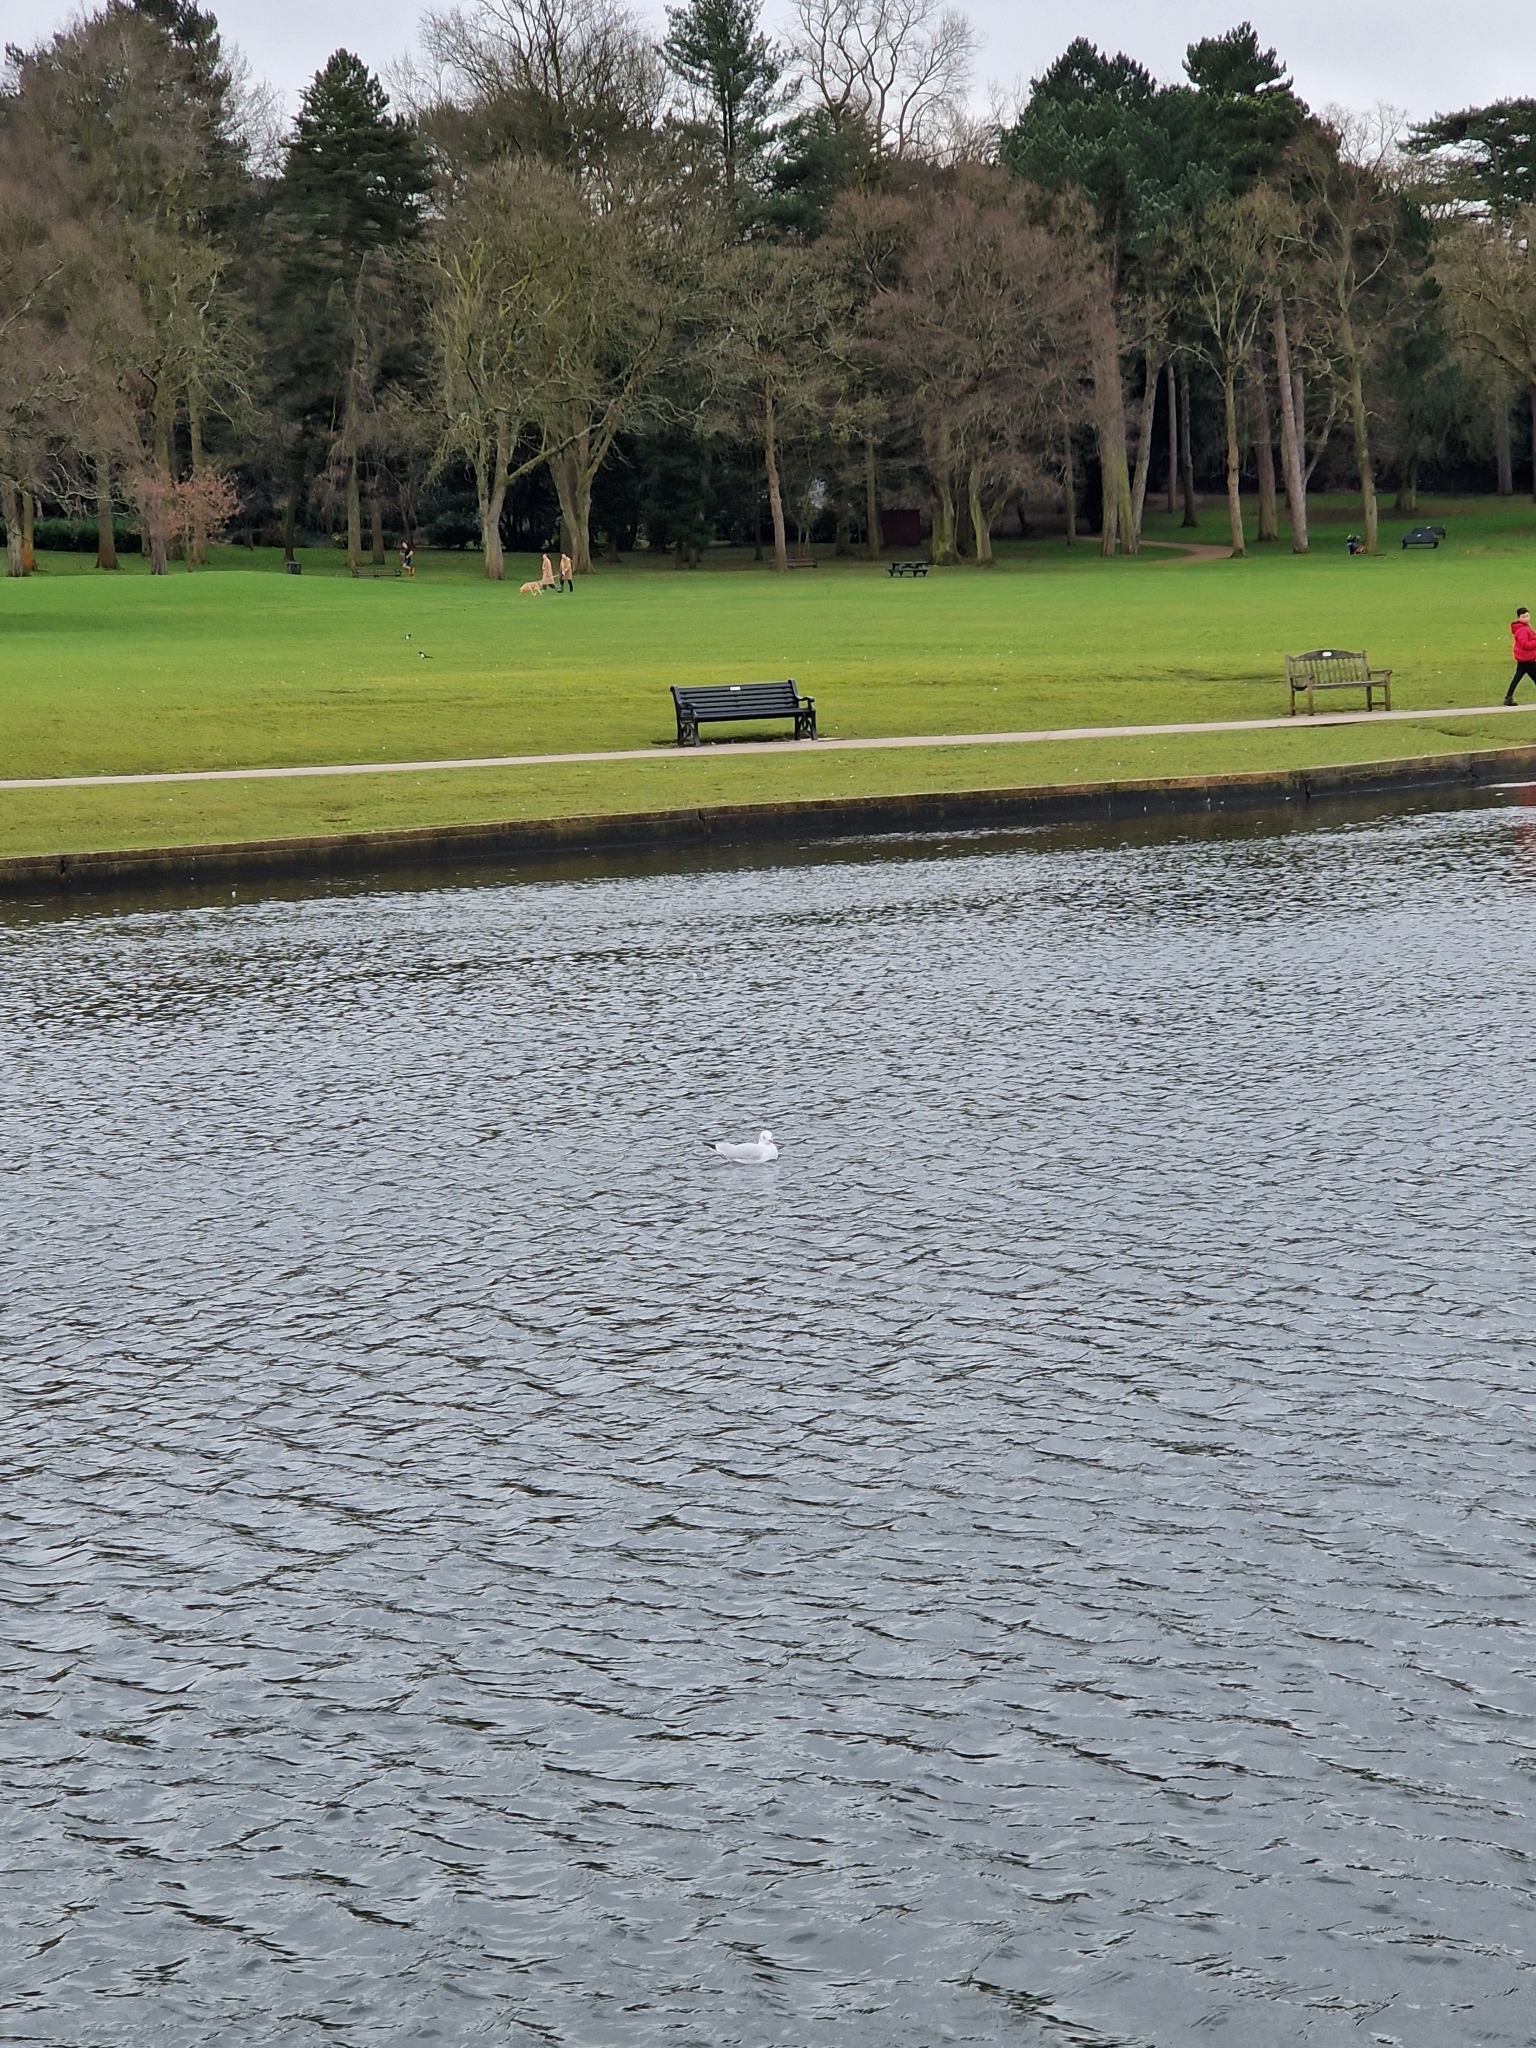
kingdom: Animalia
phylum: Chordata
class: Aves
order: Charadriiformes
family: Laridae
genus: Chroicocephalus
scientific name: Chroicocephalus ridibundus
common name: Black-headed gull
